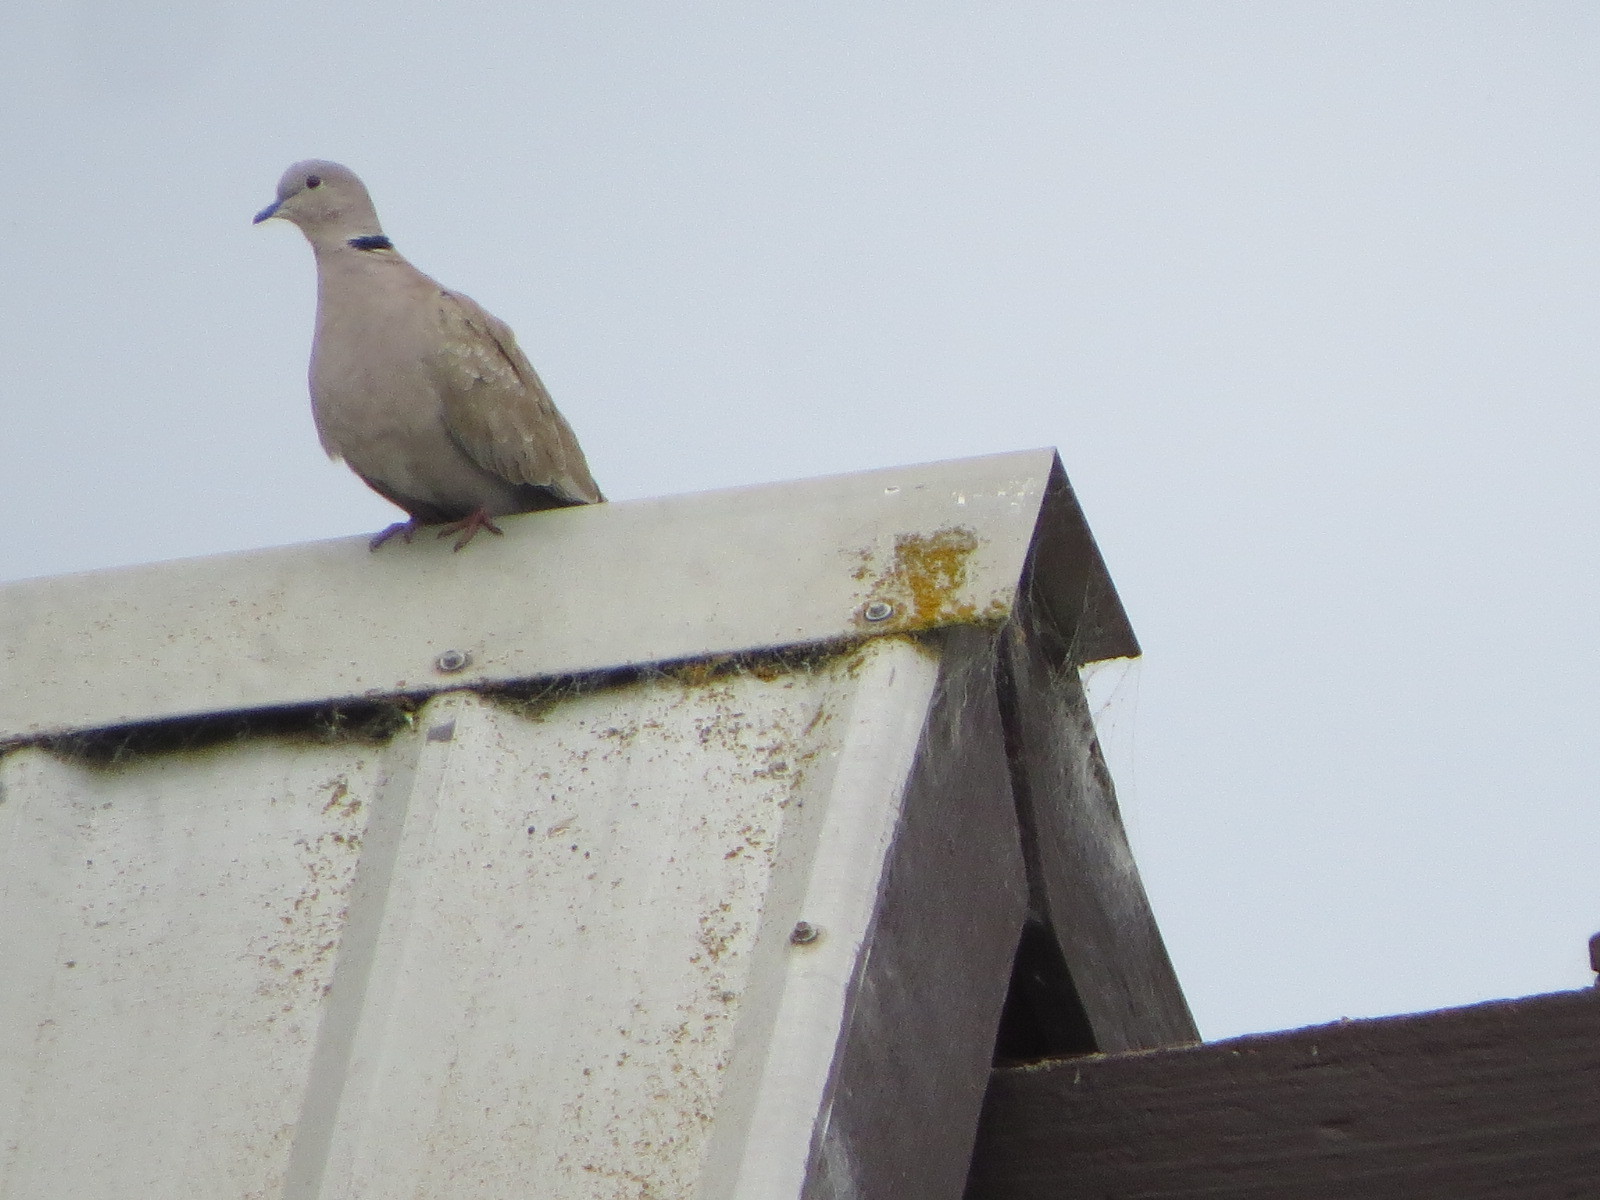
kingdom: Animalia
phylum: Chordata
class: Aves
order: Columbiformes
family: Columbidae
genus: Streptopelia
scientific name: Streptopelia decaocto
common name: Eurasian collared dove
